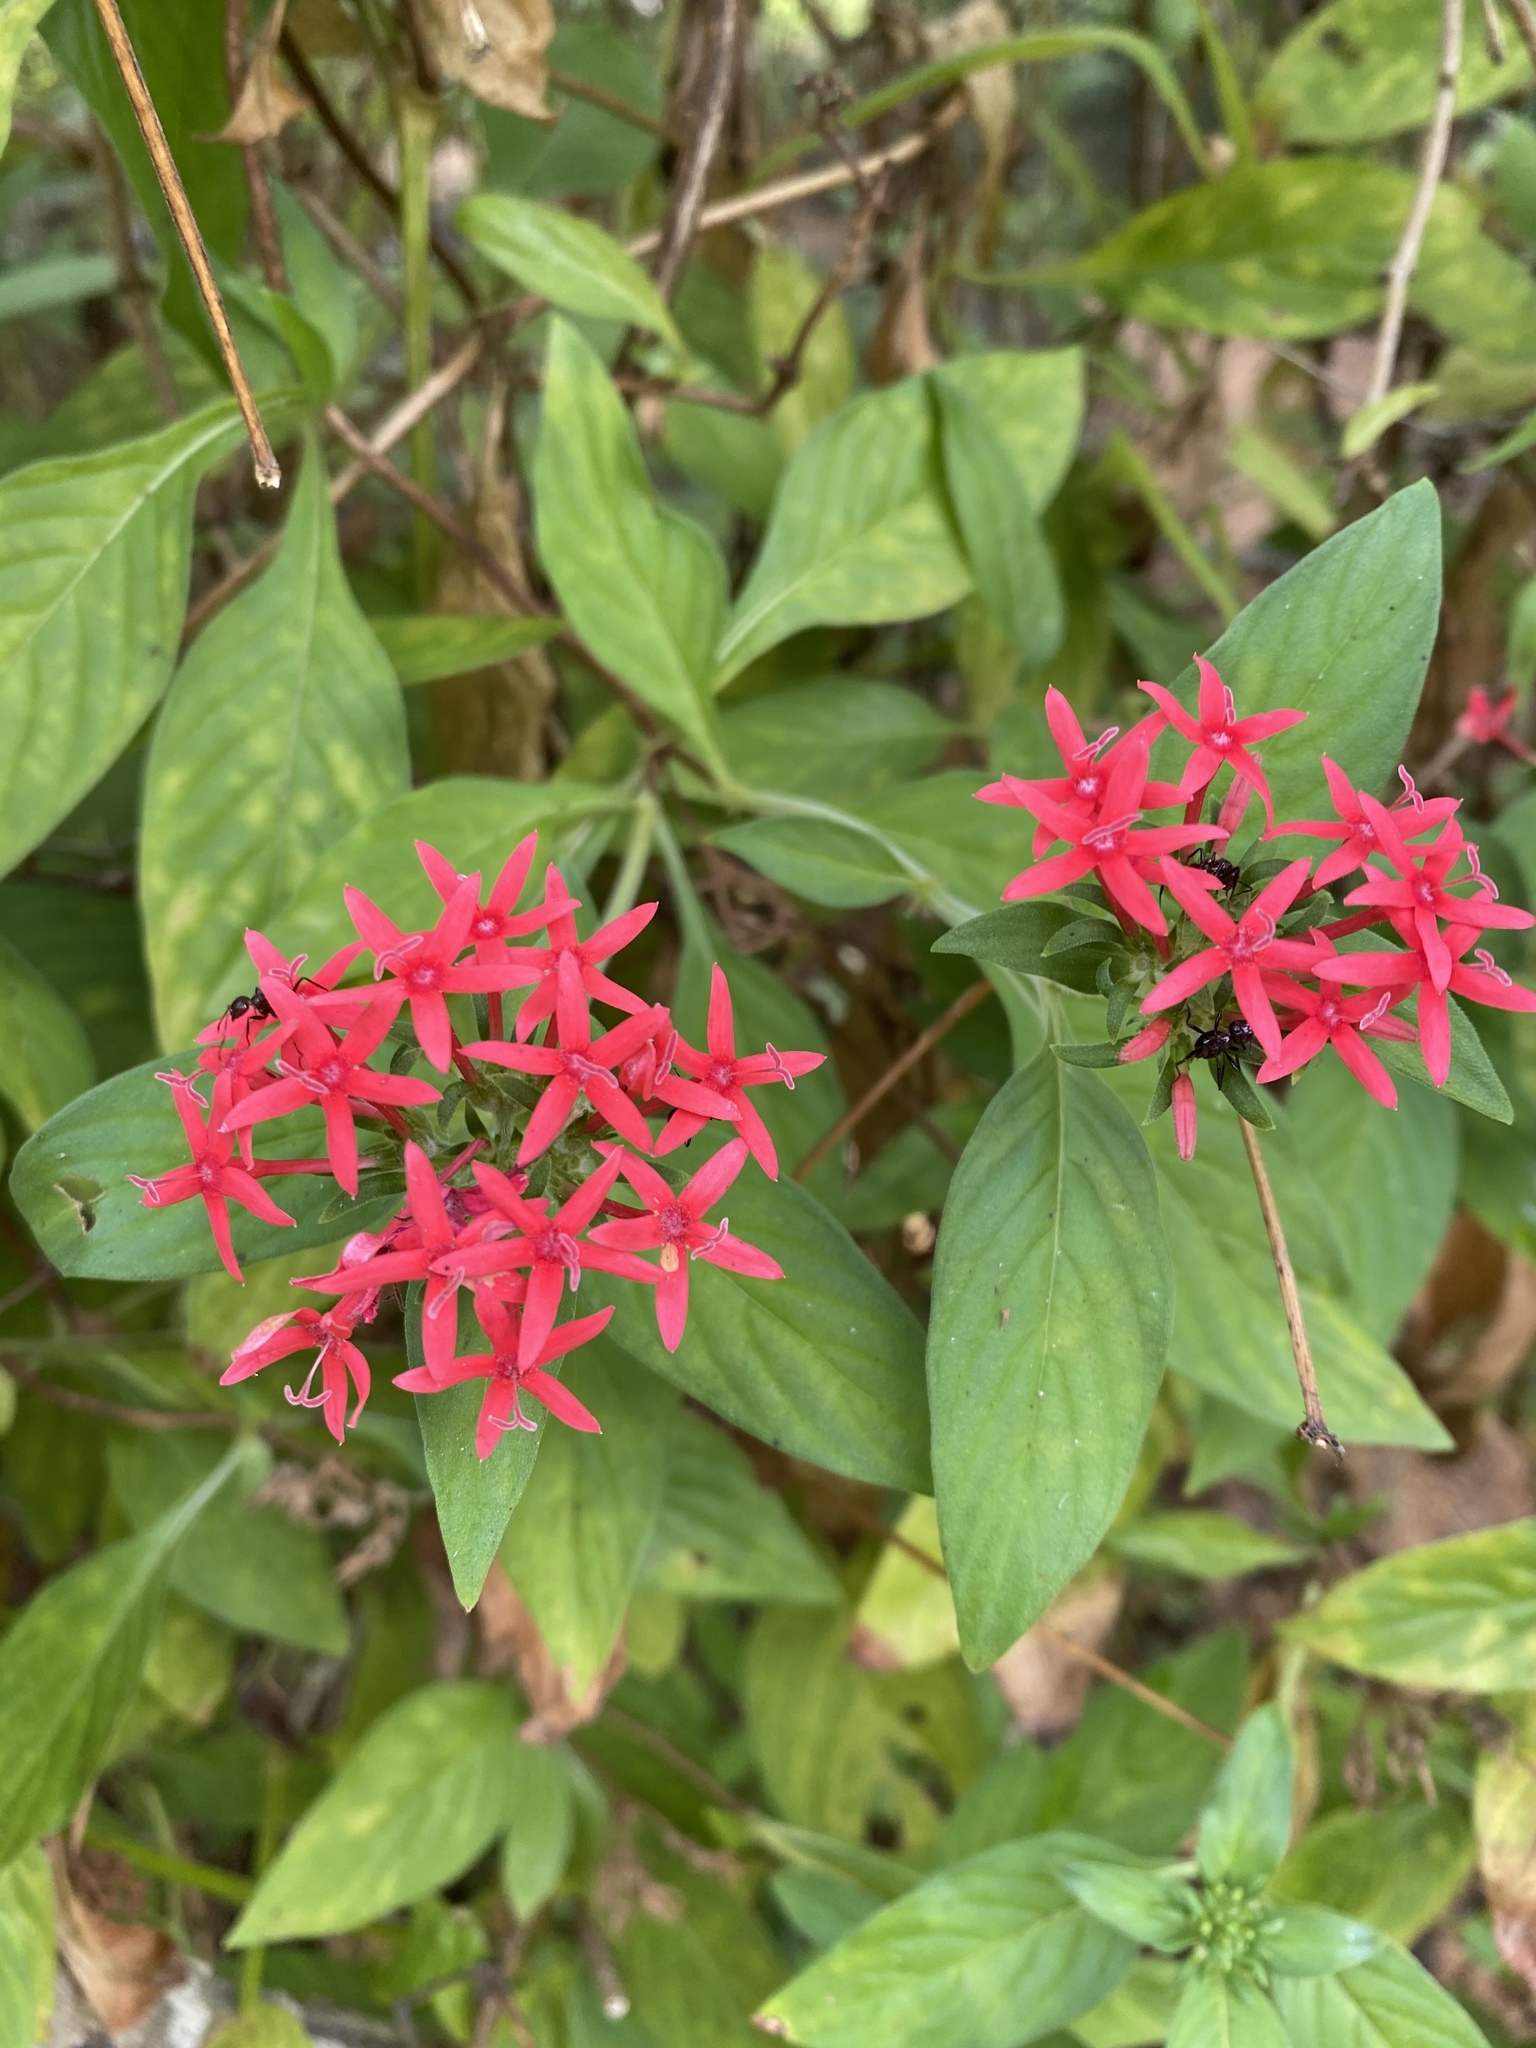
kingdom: Plantae
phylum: Tracheophyta
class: Magnoliopsida
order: Gentianales
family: Rubiaceae
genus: Pentas
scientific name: Pentas lanceolata
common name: Egyptian starcluster
